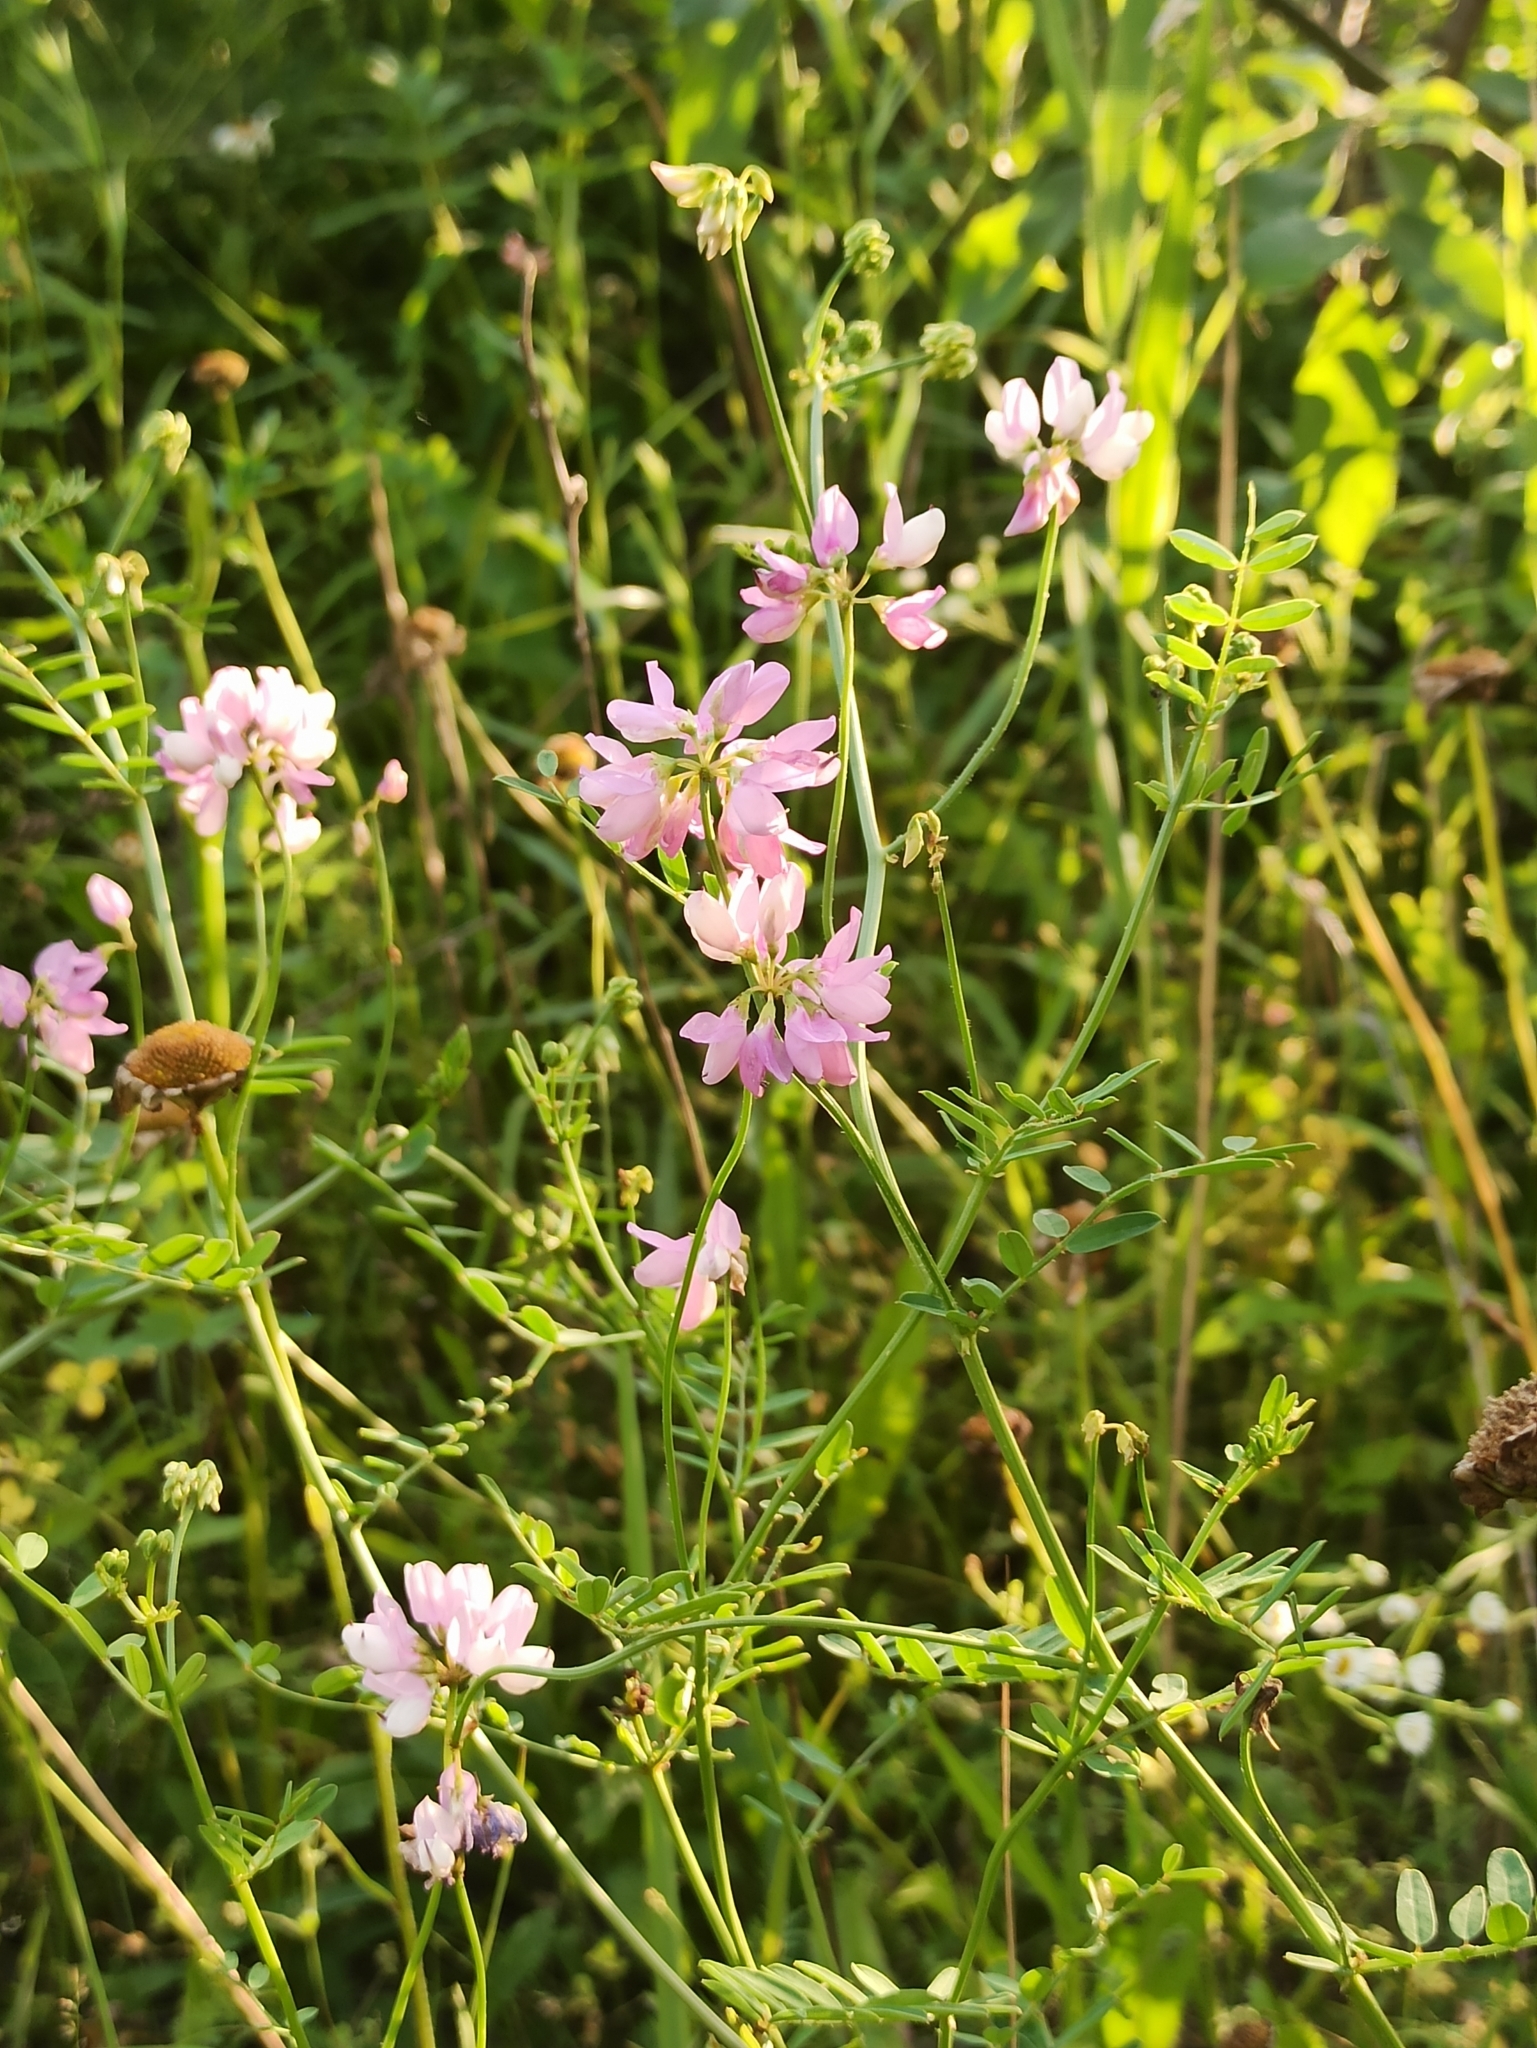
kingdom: Plantae
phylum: Tracheophyta
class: Magnoliopsida
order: Fabales
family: Fabaceae
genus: Coronilla
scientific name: Coronilla varia
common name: Crownvetch
